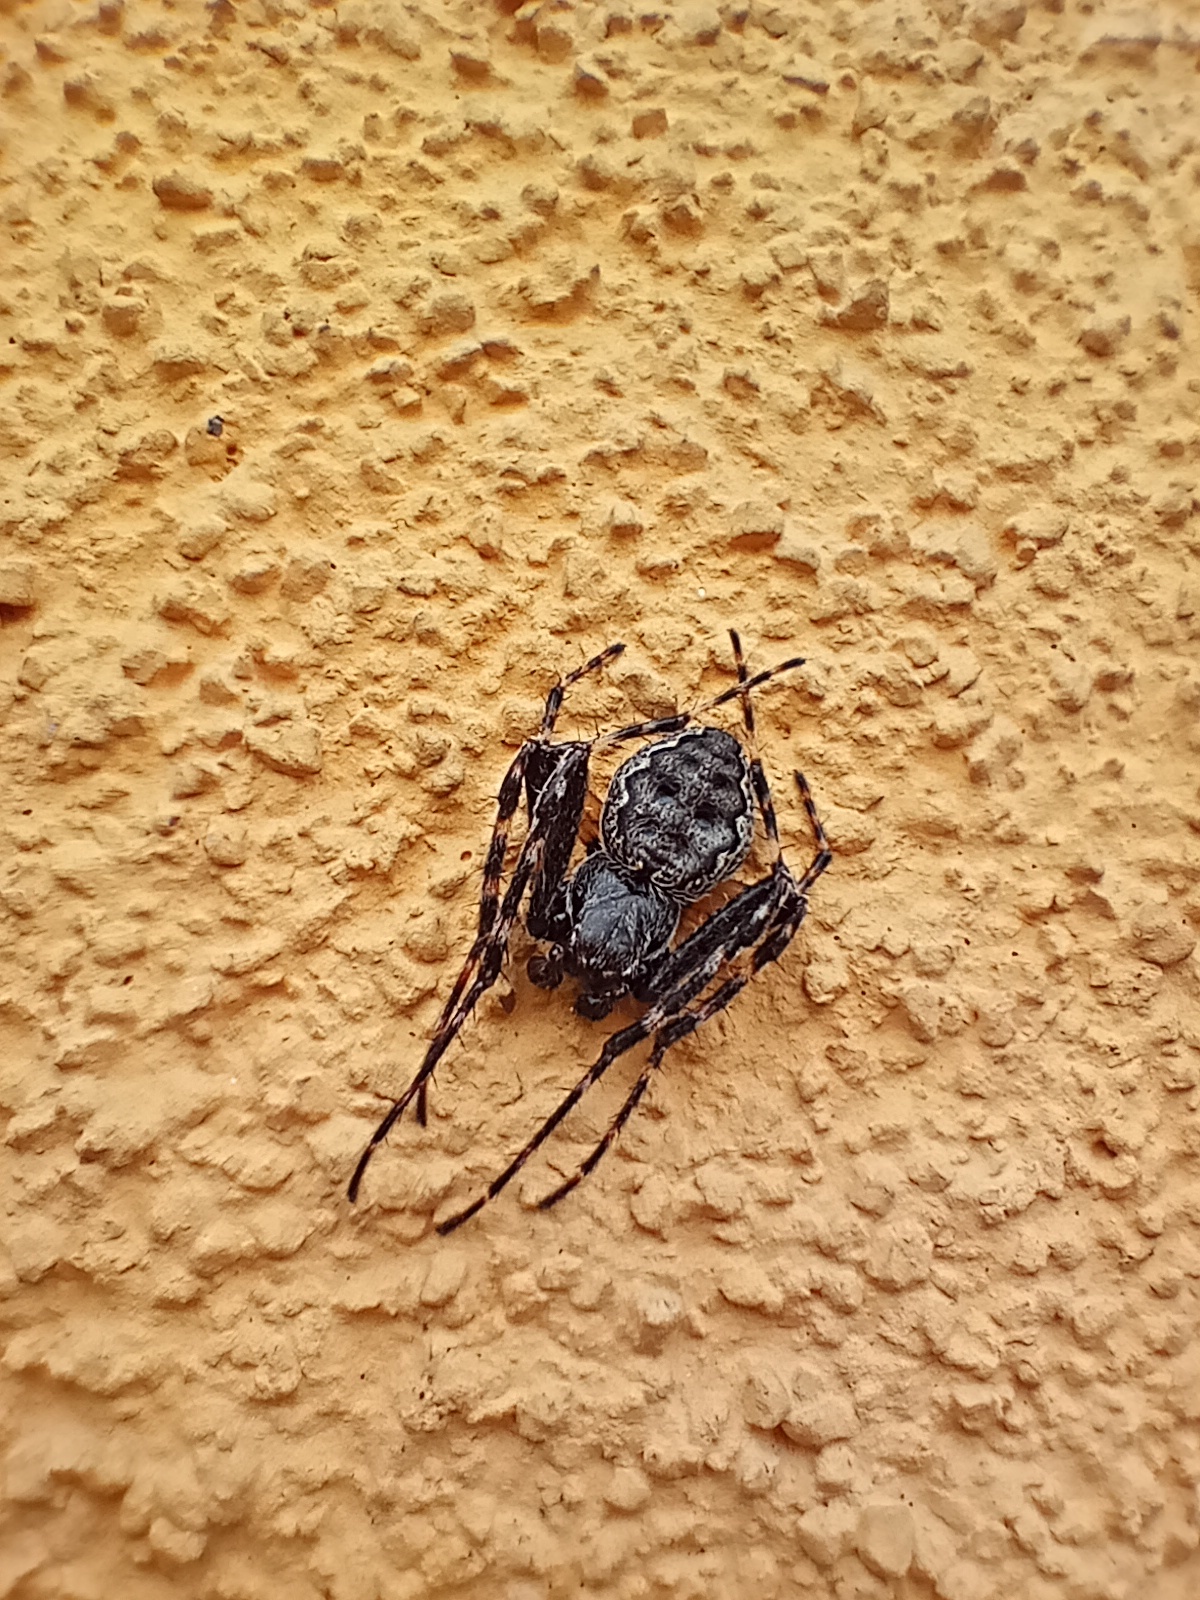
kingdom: Animalia
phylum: Arthropoda
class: Arachnida
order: Araneae
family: Araneidae
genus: Nuctenea
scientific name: Nuctenea umbratica
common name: Toad spider
